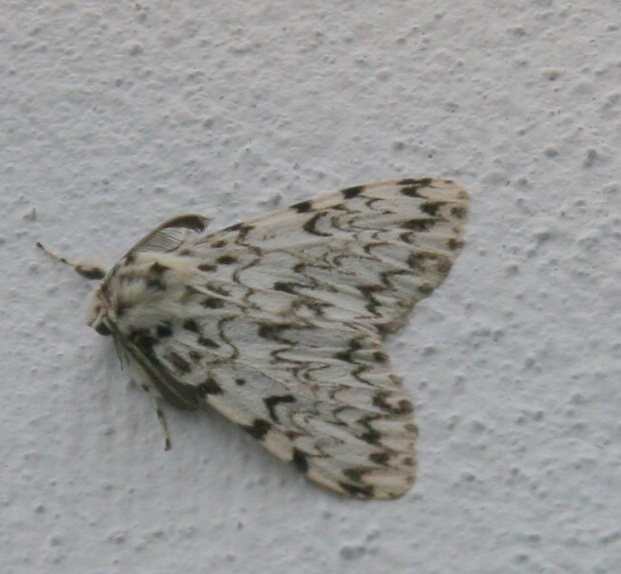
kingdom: Animalia
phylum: Arthropoda
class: Insecta
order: Lepidoptera
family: Erebidae
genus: Lymantria
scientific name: Lymantria monacha
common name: Black arches
